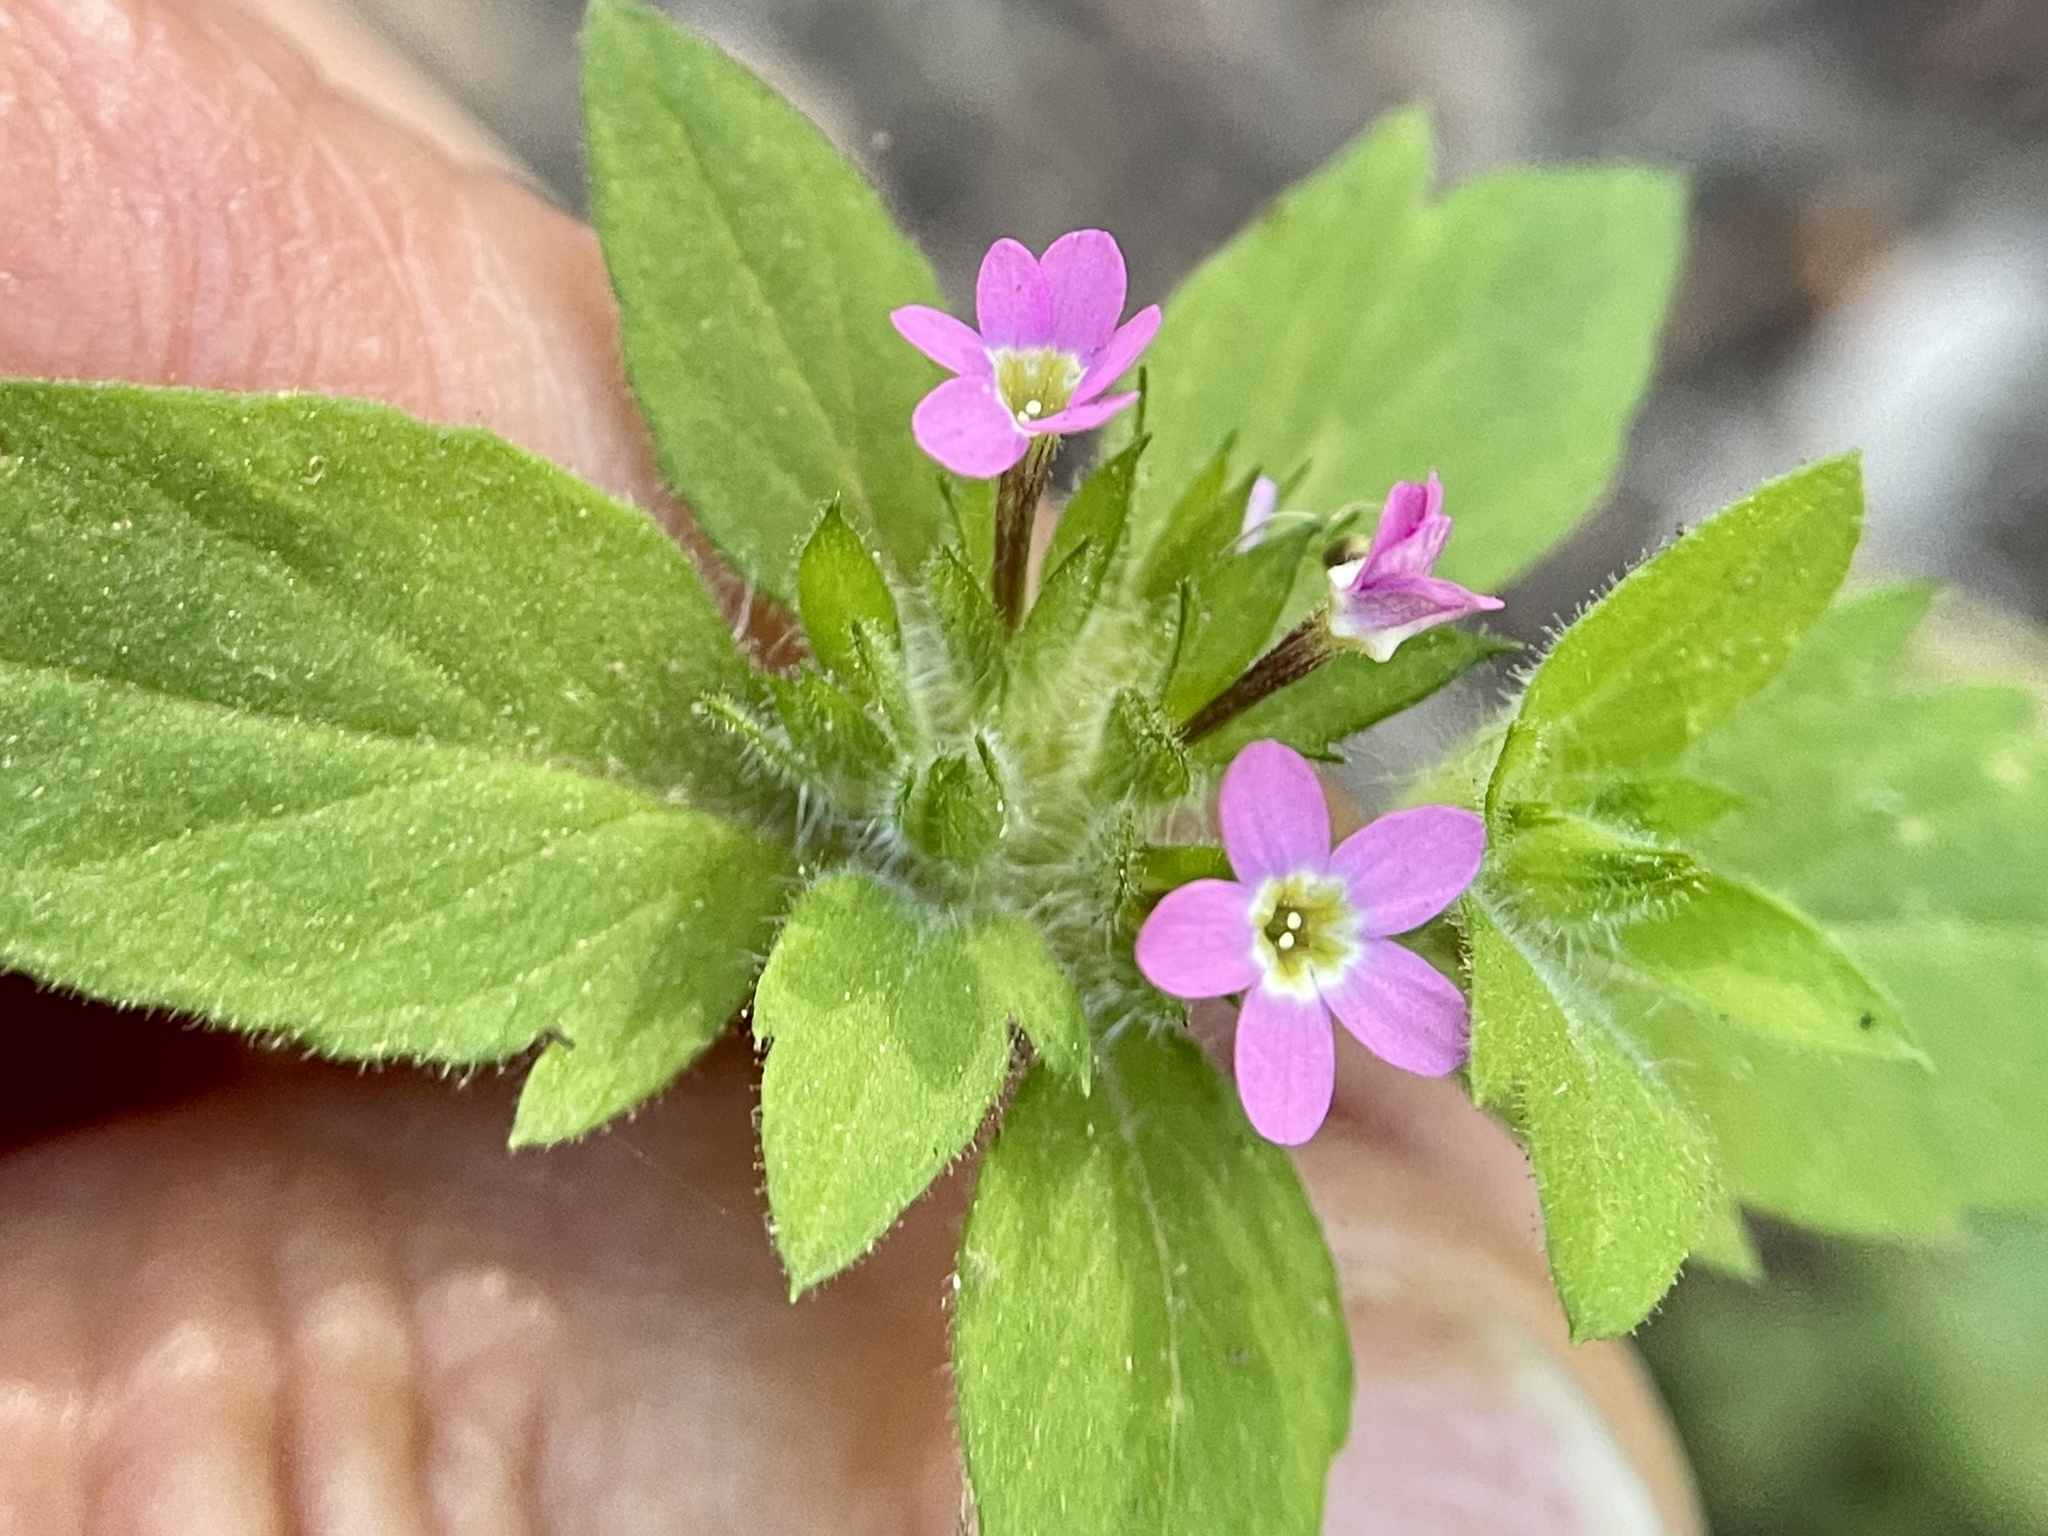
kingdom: Plantae
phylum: Tracheophyta
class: Magnoliopsida
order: Ericales
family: Polemoniaceae
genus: Collomia
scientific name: Collomia heterophylla
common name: Variable-leaved collomia
